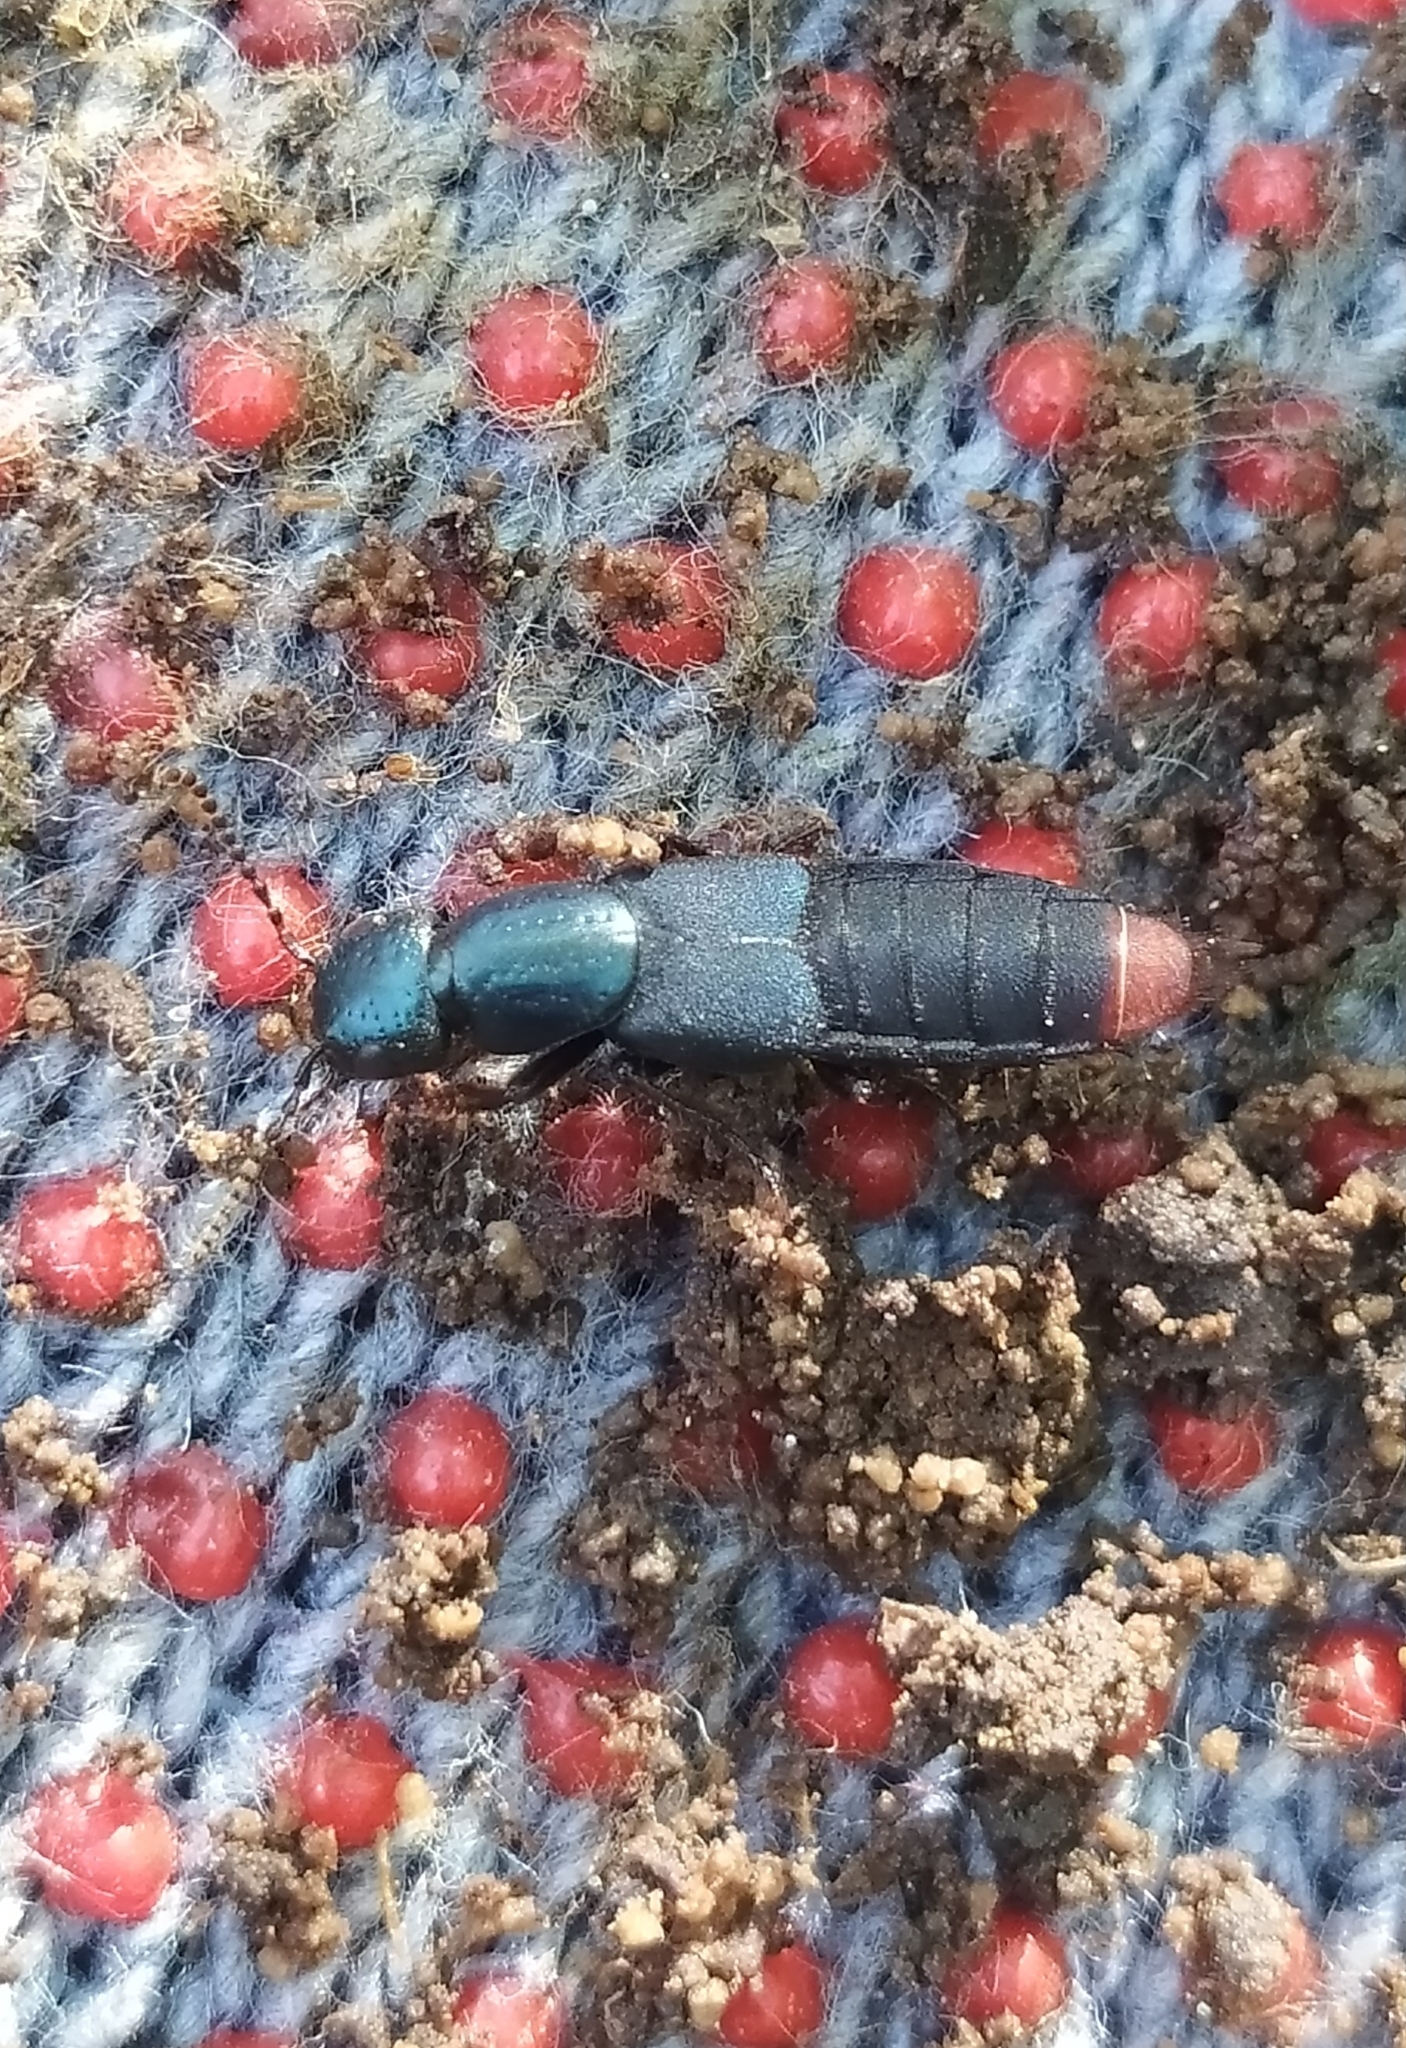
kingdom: Animalia
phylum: Arthropoda
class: Insecta
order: Coleoptera
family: Staphylinidae
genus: Xenopygus
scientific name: Xenopygus analis
